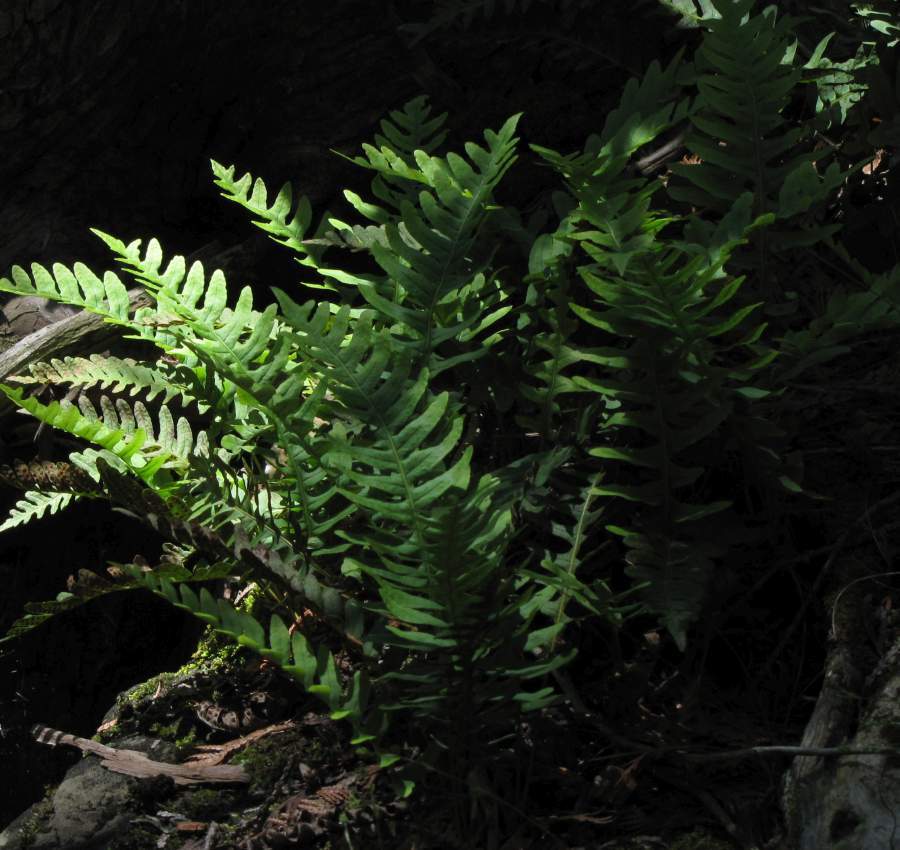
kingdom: Plantae
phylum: Tracheophyta
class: Polypodiopsida
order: Polypodiales
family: Polypodiaceae
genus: Polypodium
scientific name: Polypodium virginianum
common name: American wall fern
